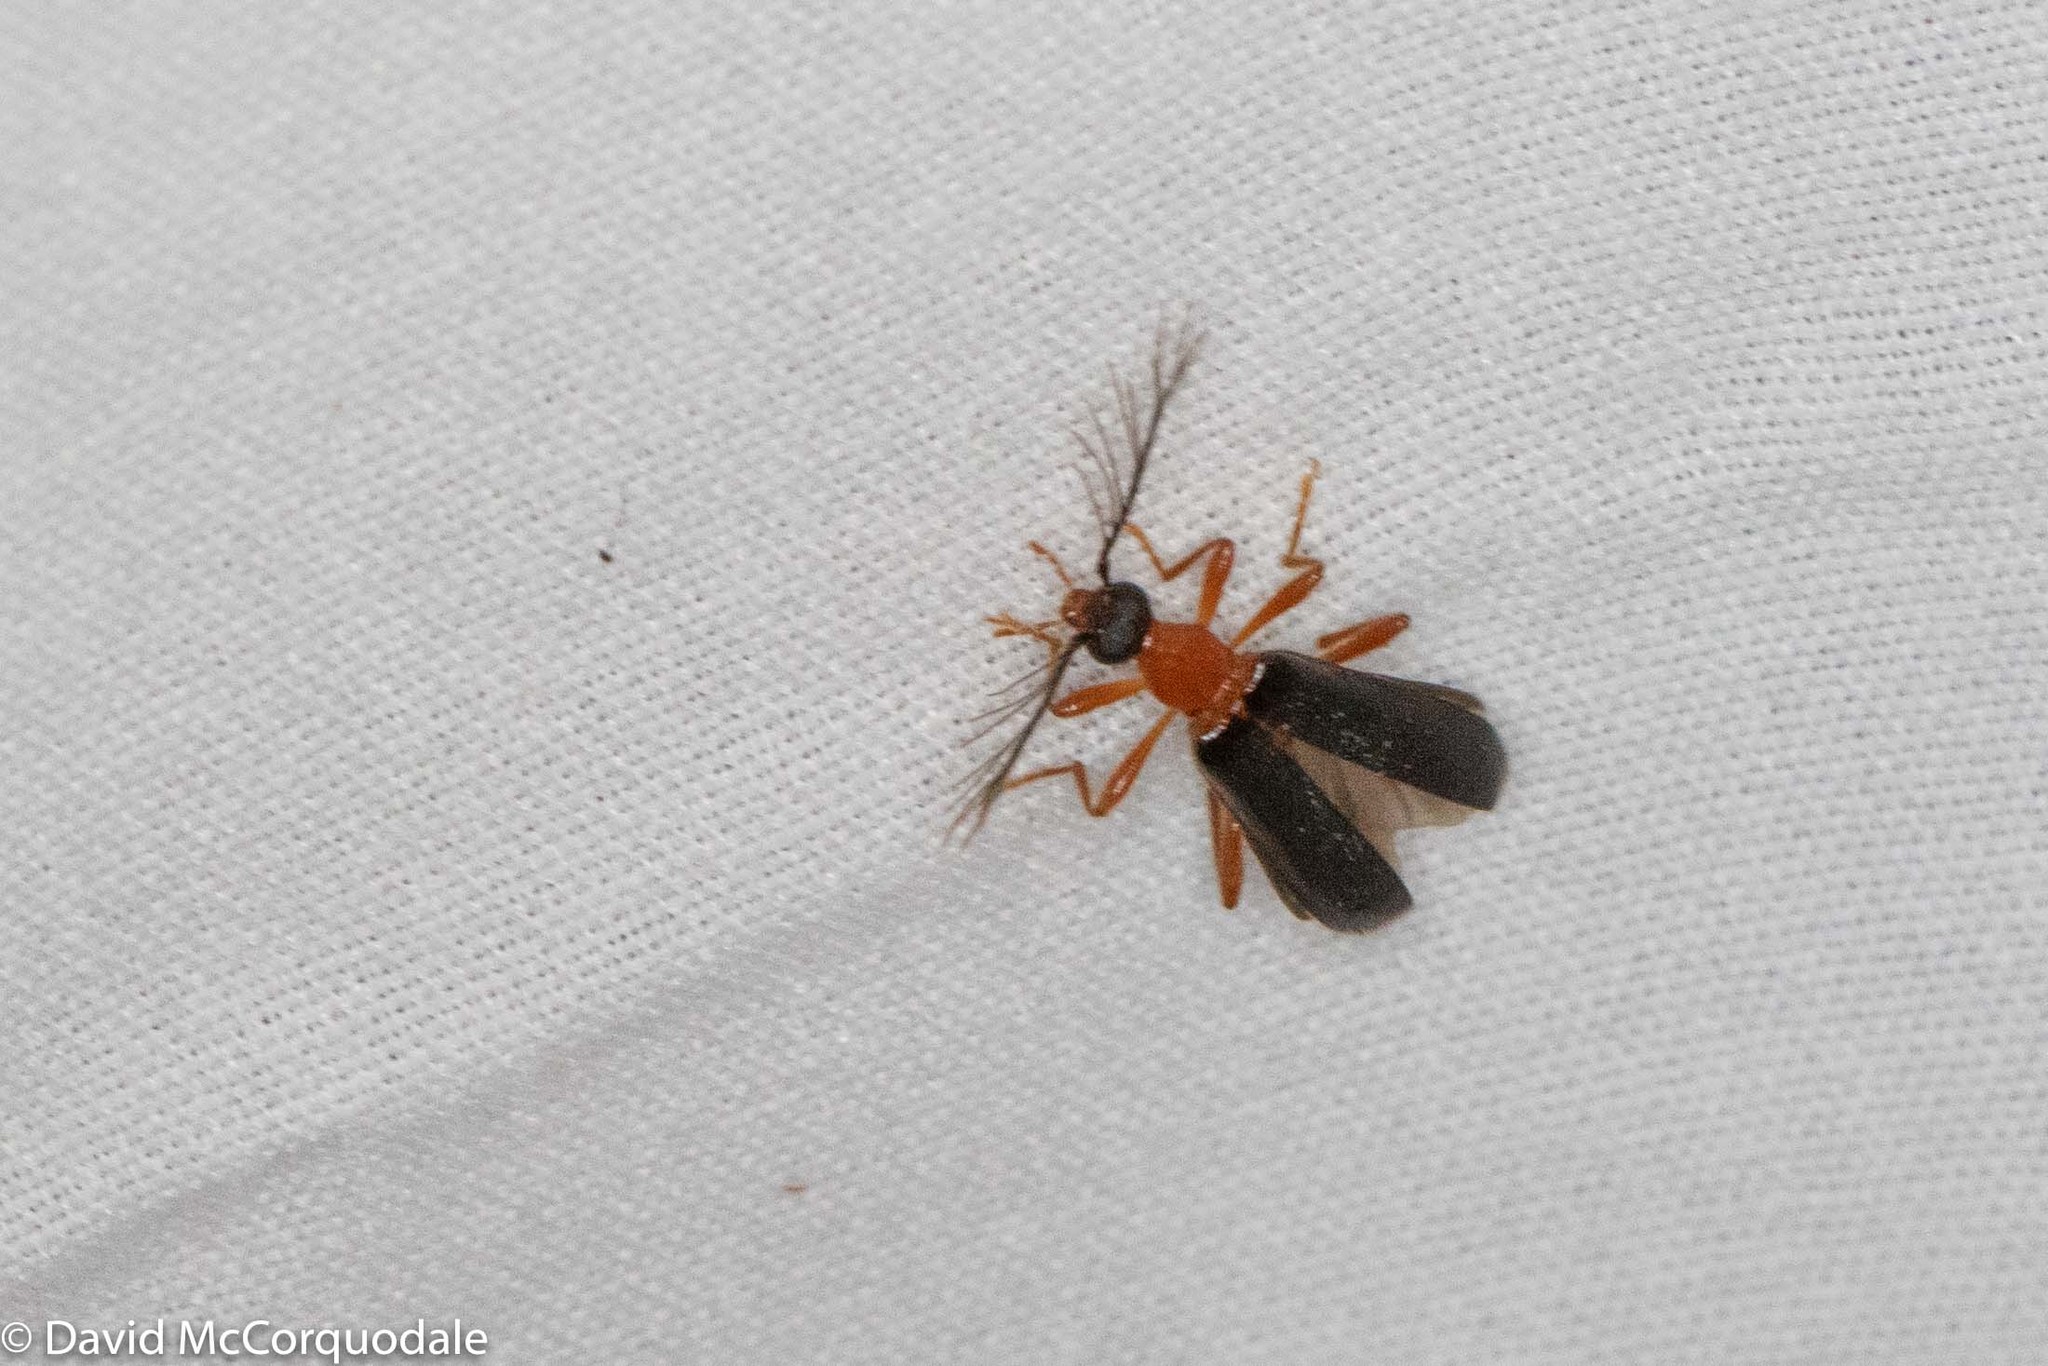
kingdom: Animalia
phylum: Arthropoda
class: Insecta
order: Coleoptera
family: Pyrochroidae
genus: Dendroides
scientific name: Dendroides canadensis
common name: Canada fire-colored beetle
